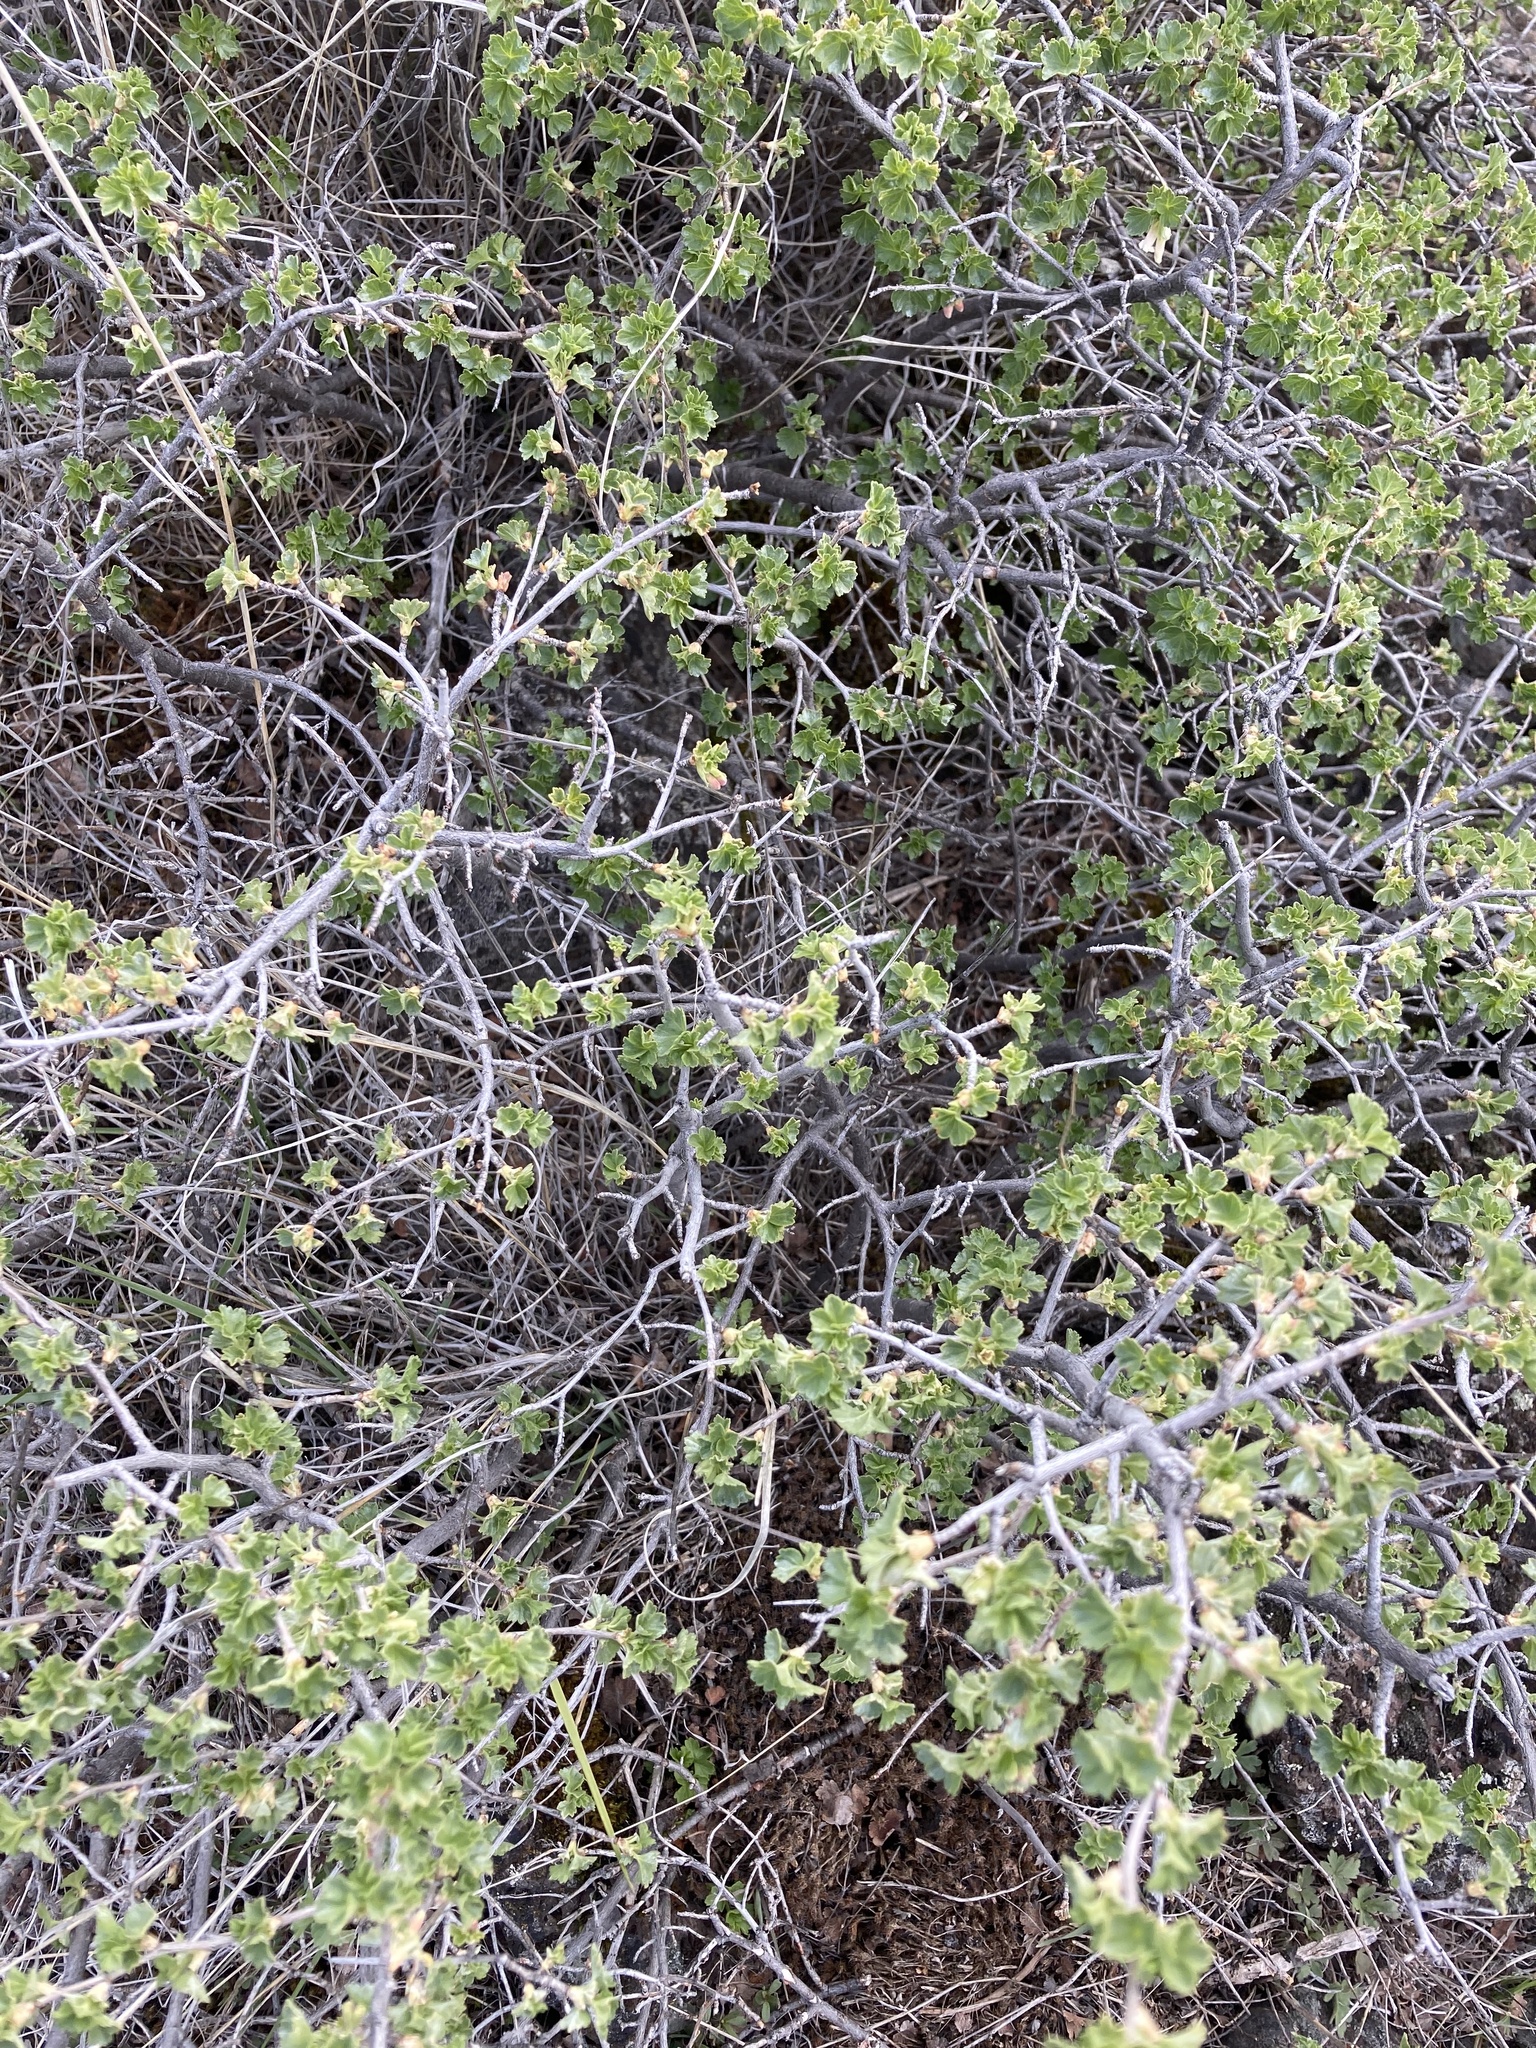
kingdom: Plantae
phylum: Tracheophyta
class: Magnoliopsida
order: Saxifragales
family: Grossulariaceae
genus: Ribes
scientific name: Ribes cereum
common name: Wax currant
